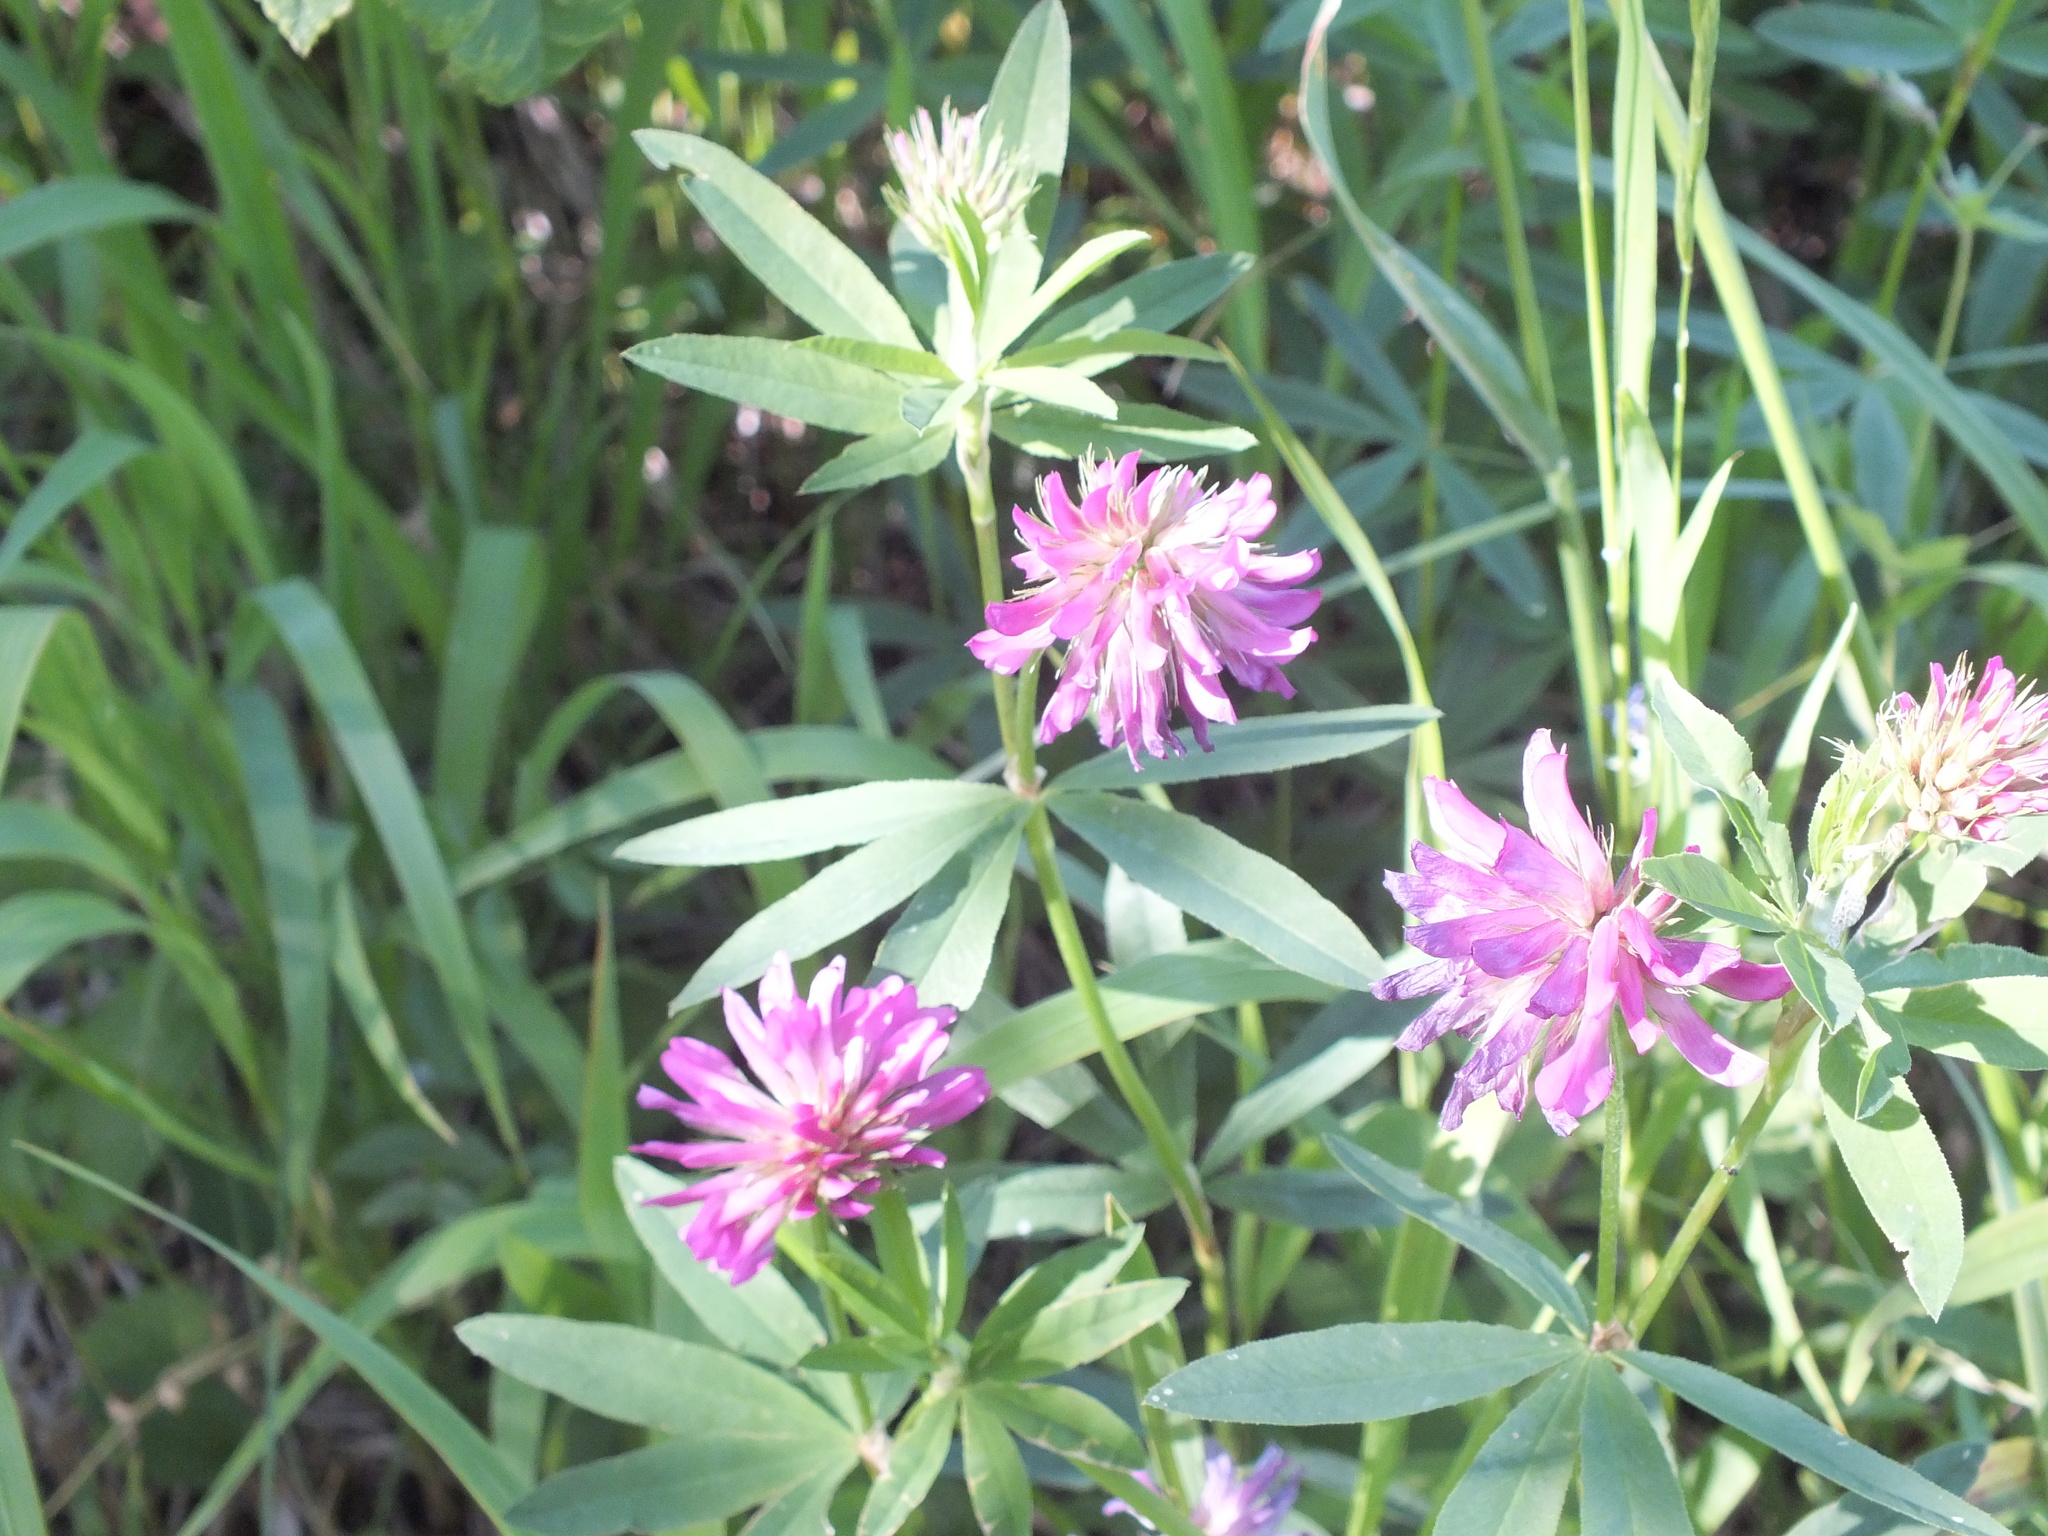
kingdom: Plantae
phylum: Tracheophyta
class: Magnoliopsida
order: Fabales
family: Fabaceae
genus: Trifolium
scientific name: Trifolium lupinaster
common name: Lupine clover
